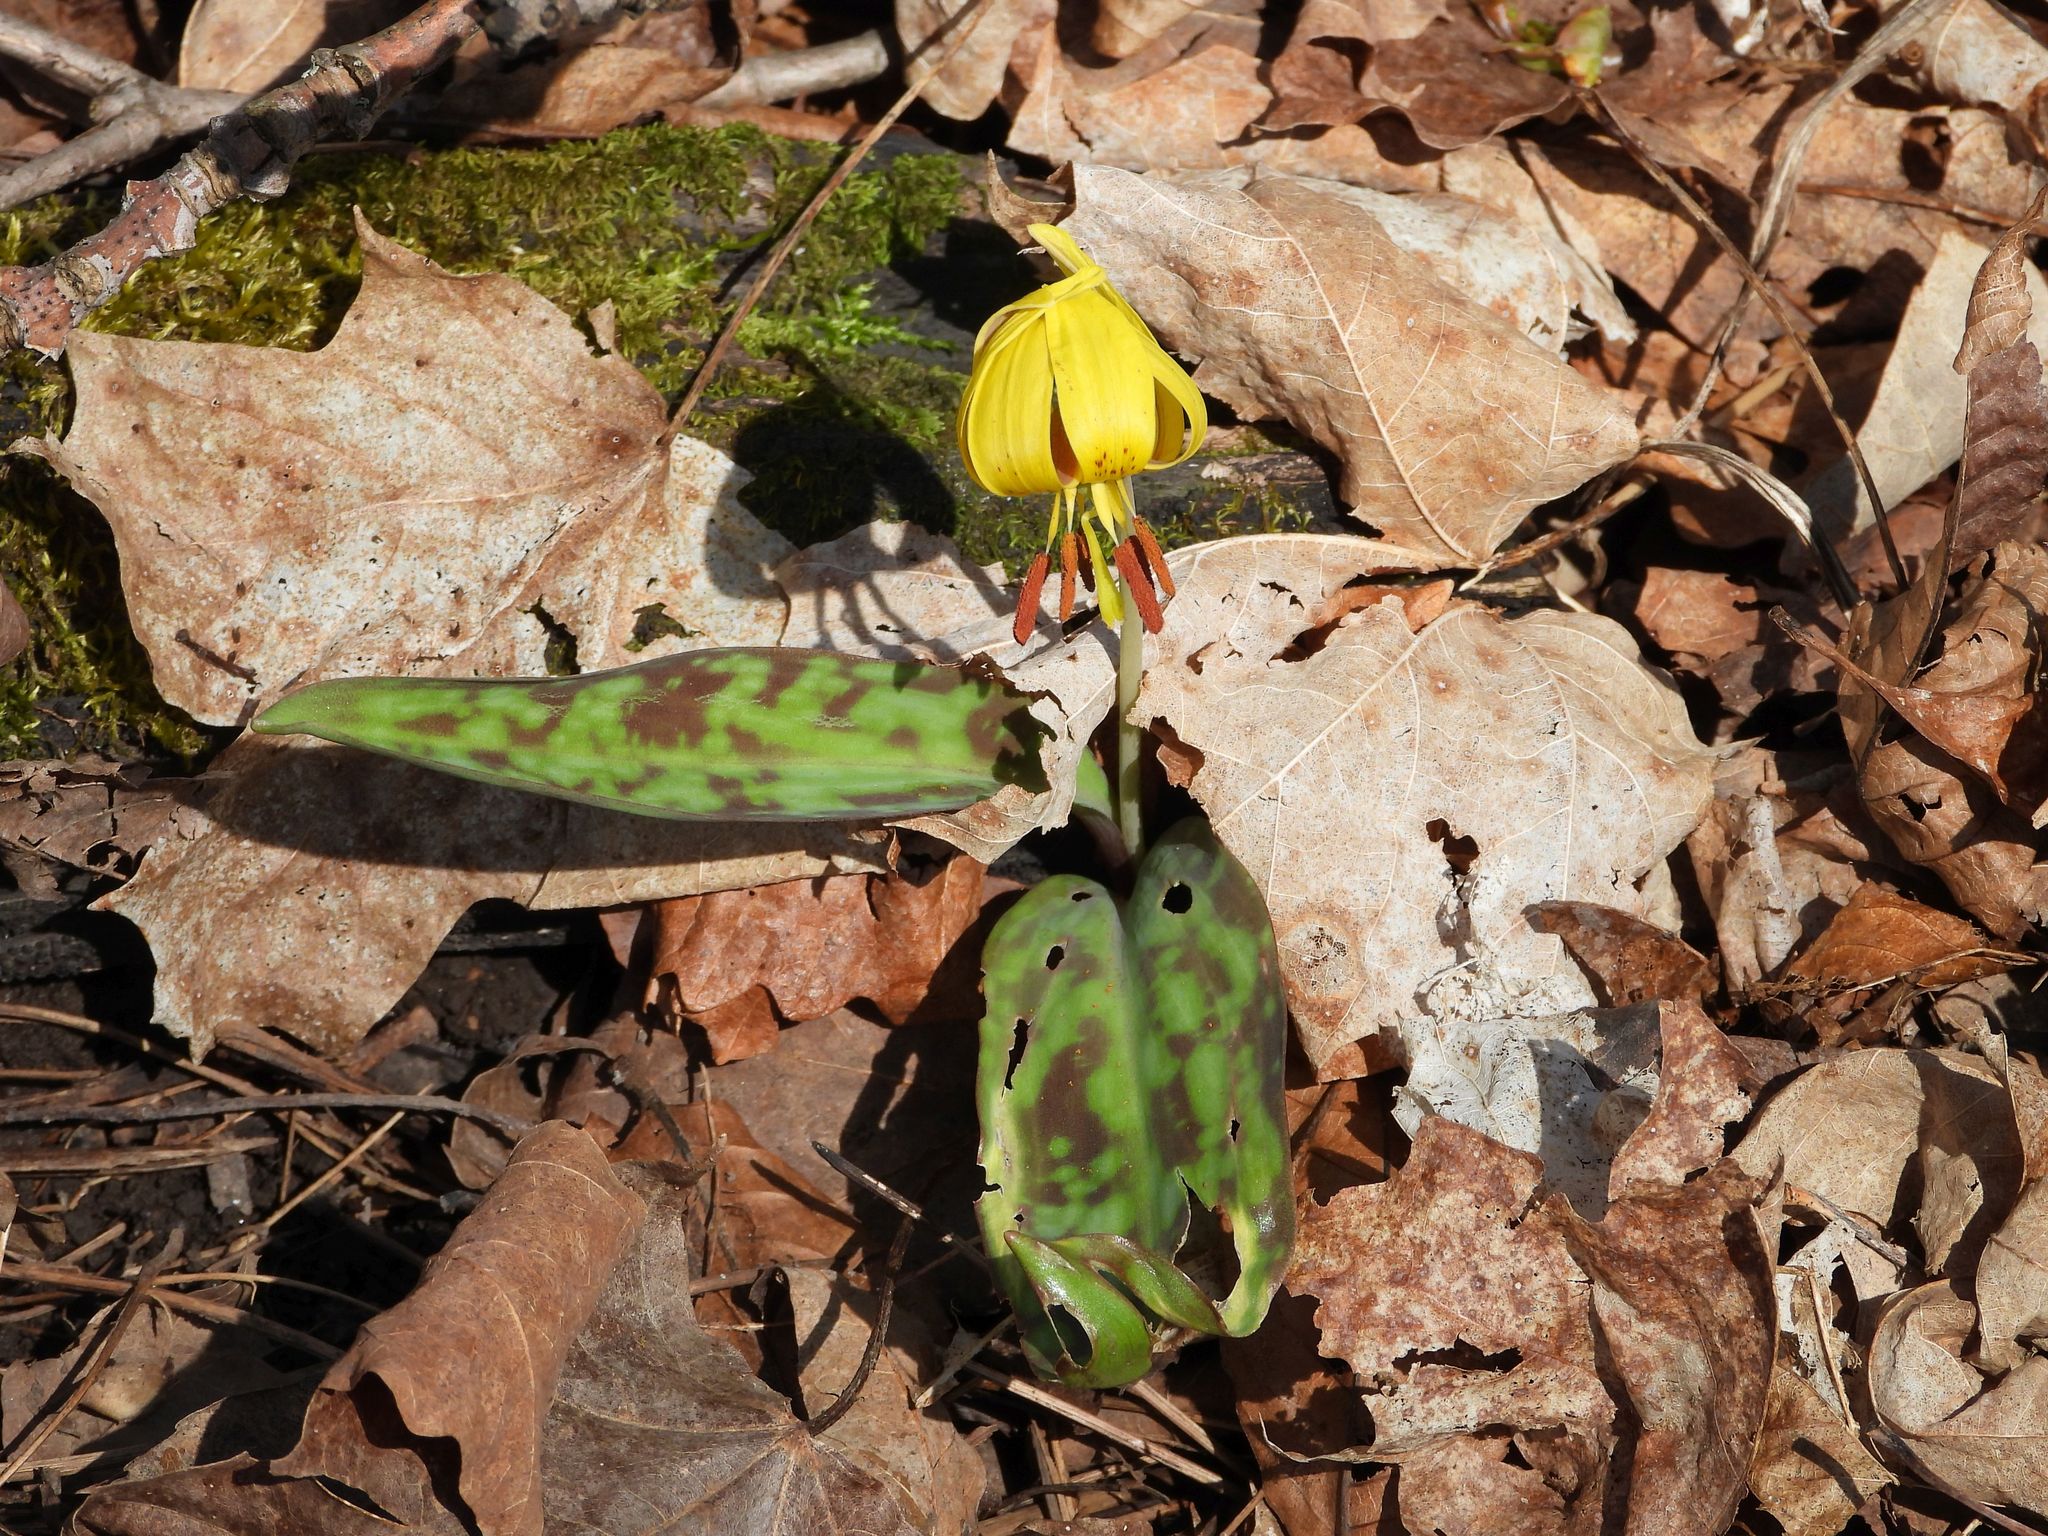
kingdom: Plantae
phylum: Tracheophyta
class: Liliopsida
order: Liliales
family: Liliaceae
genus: Erythronium
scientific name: Erythronium americanum
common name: Yellow adder's-tongue
